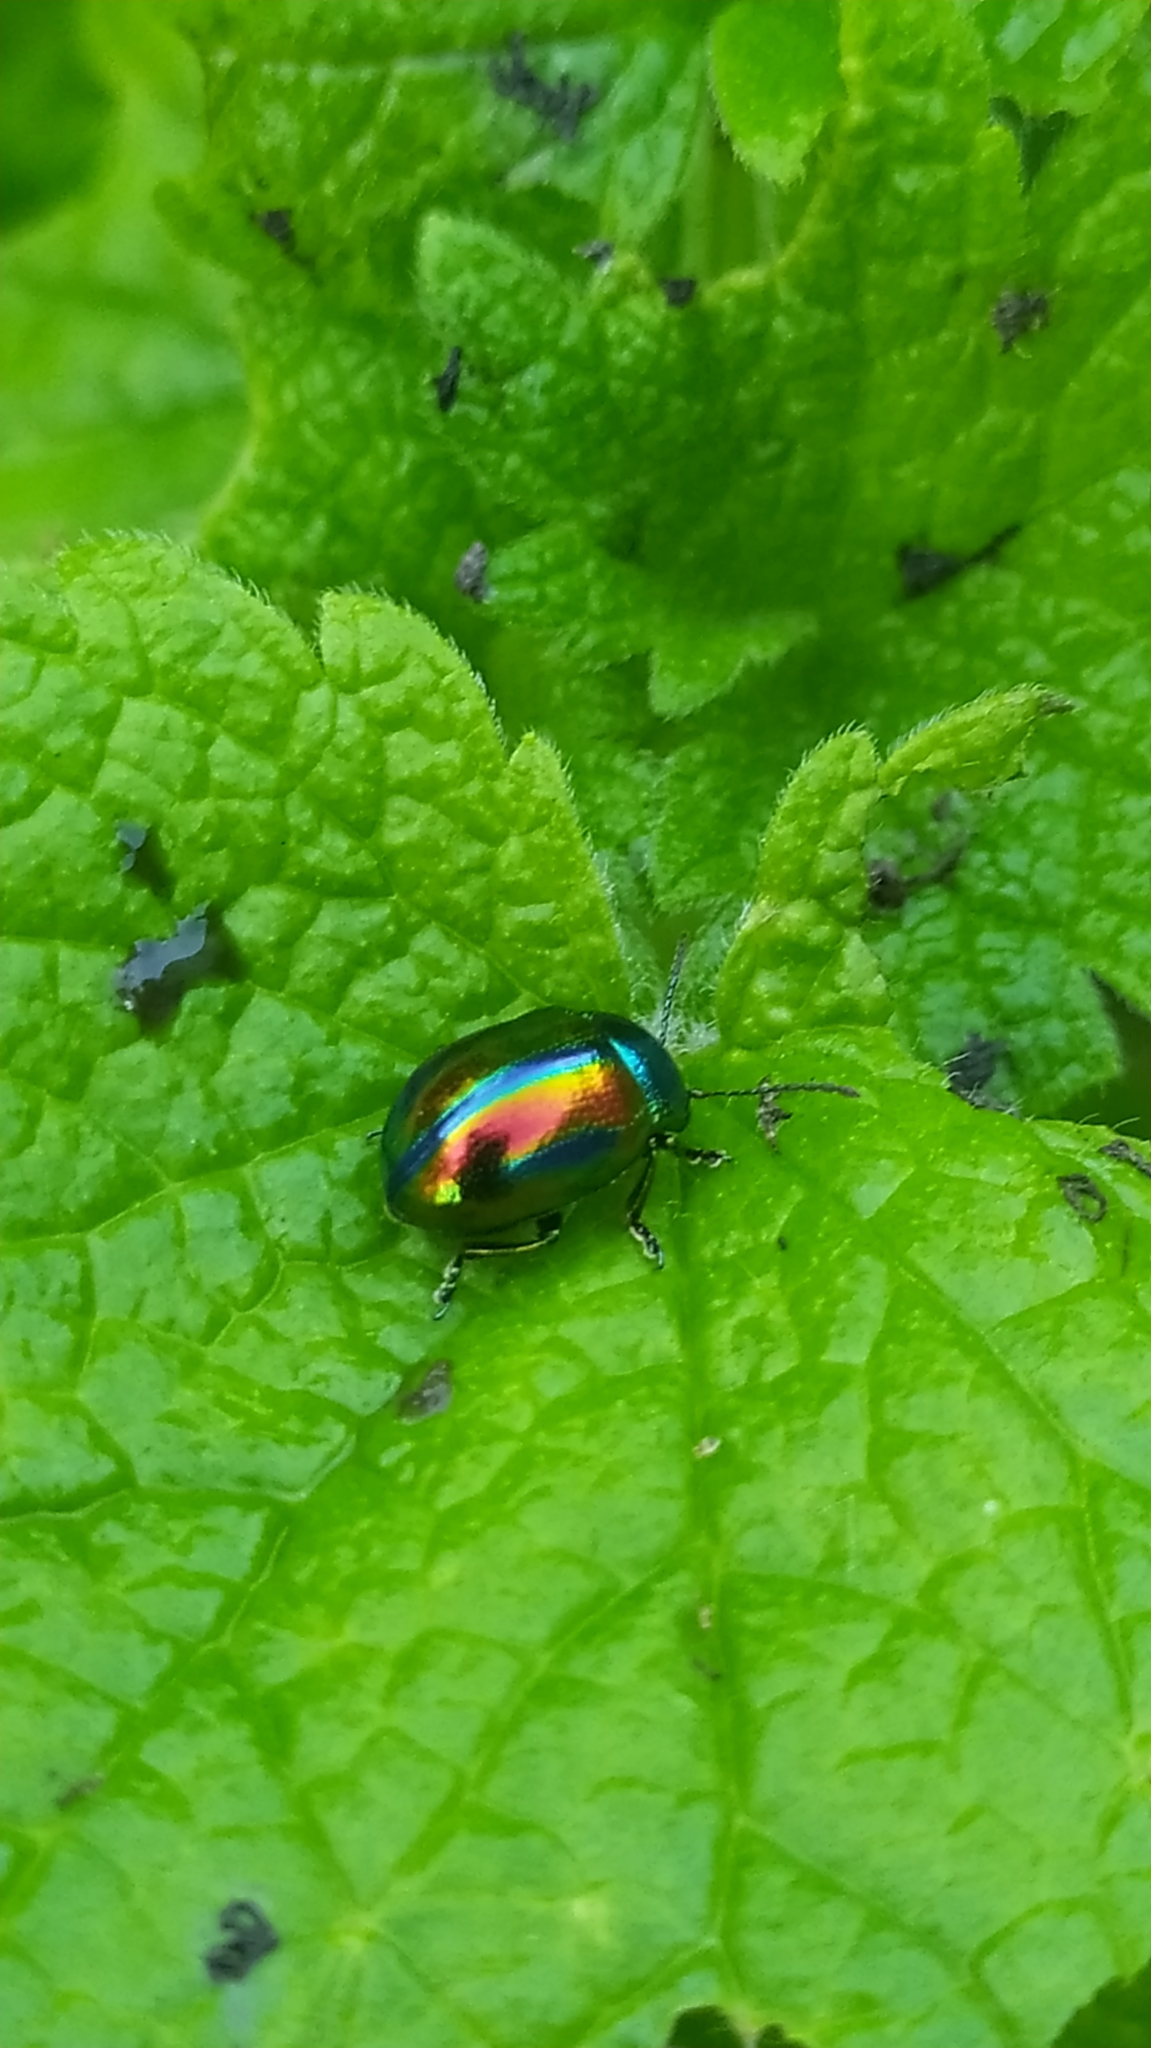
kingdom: Animalia
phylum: Arthropoda
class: Insecta
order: Coleoptera
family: Chrysomelidae
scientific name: Chrysomelidae
